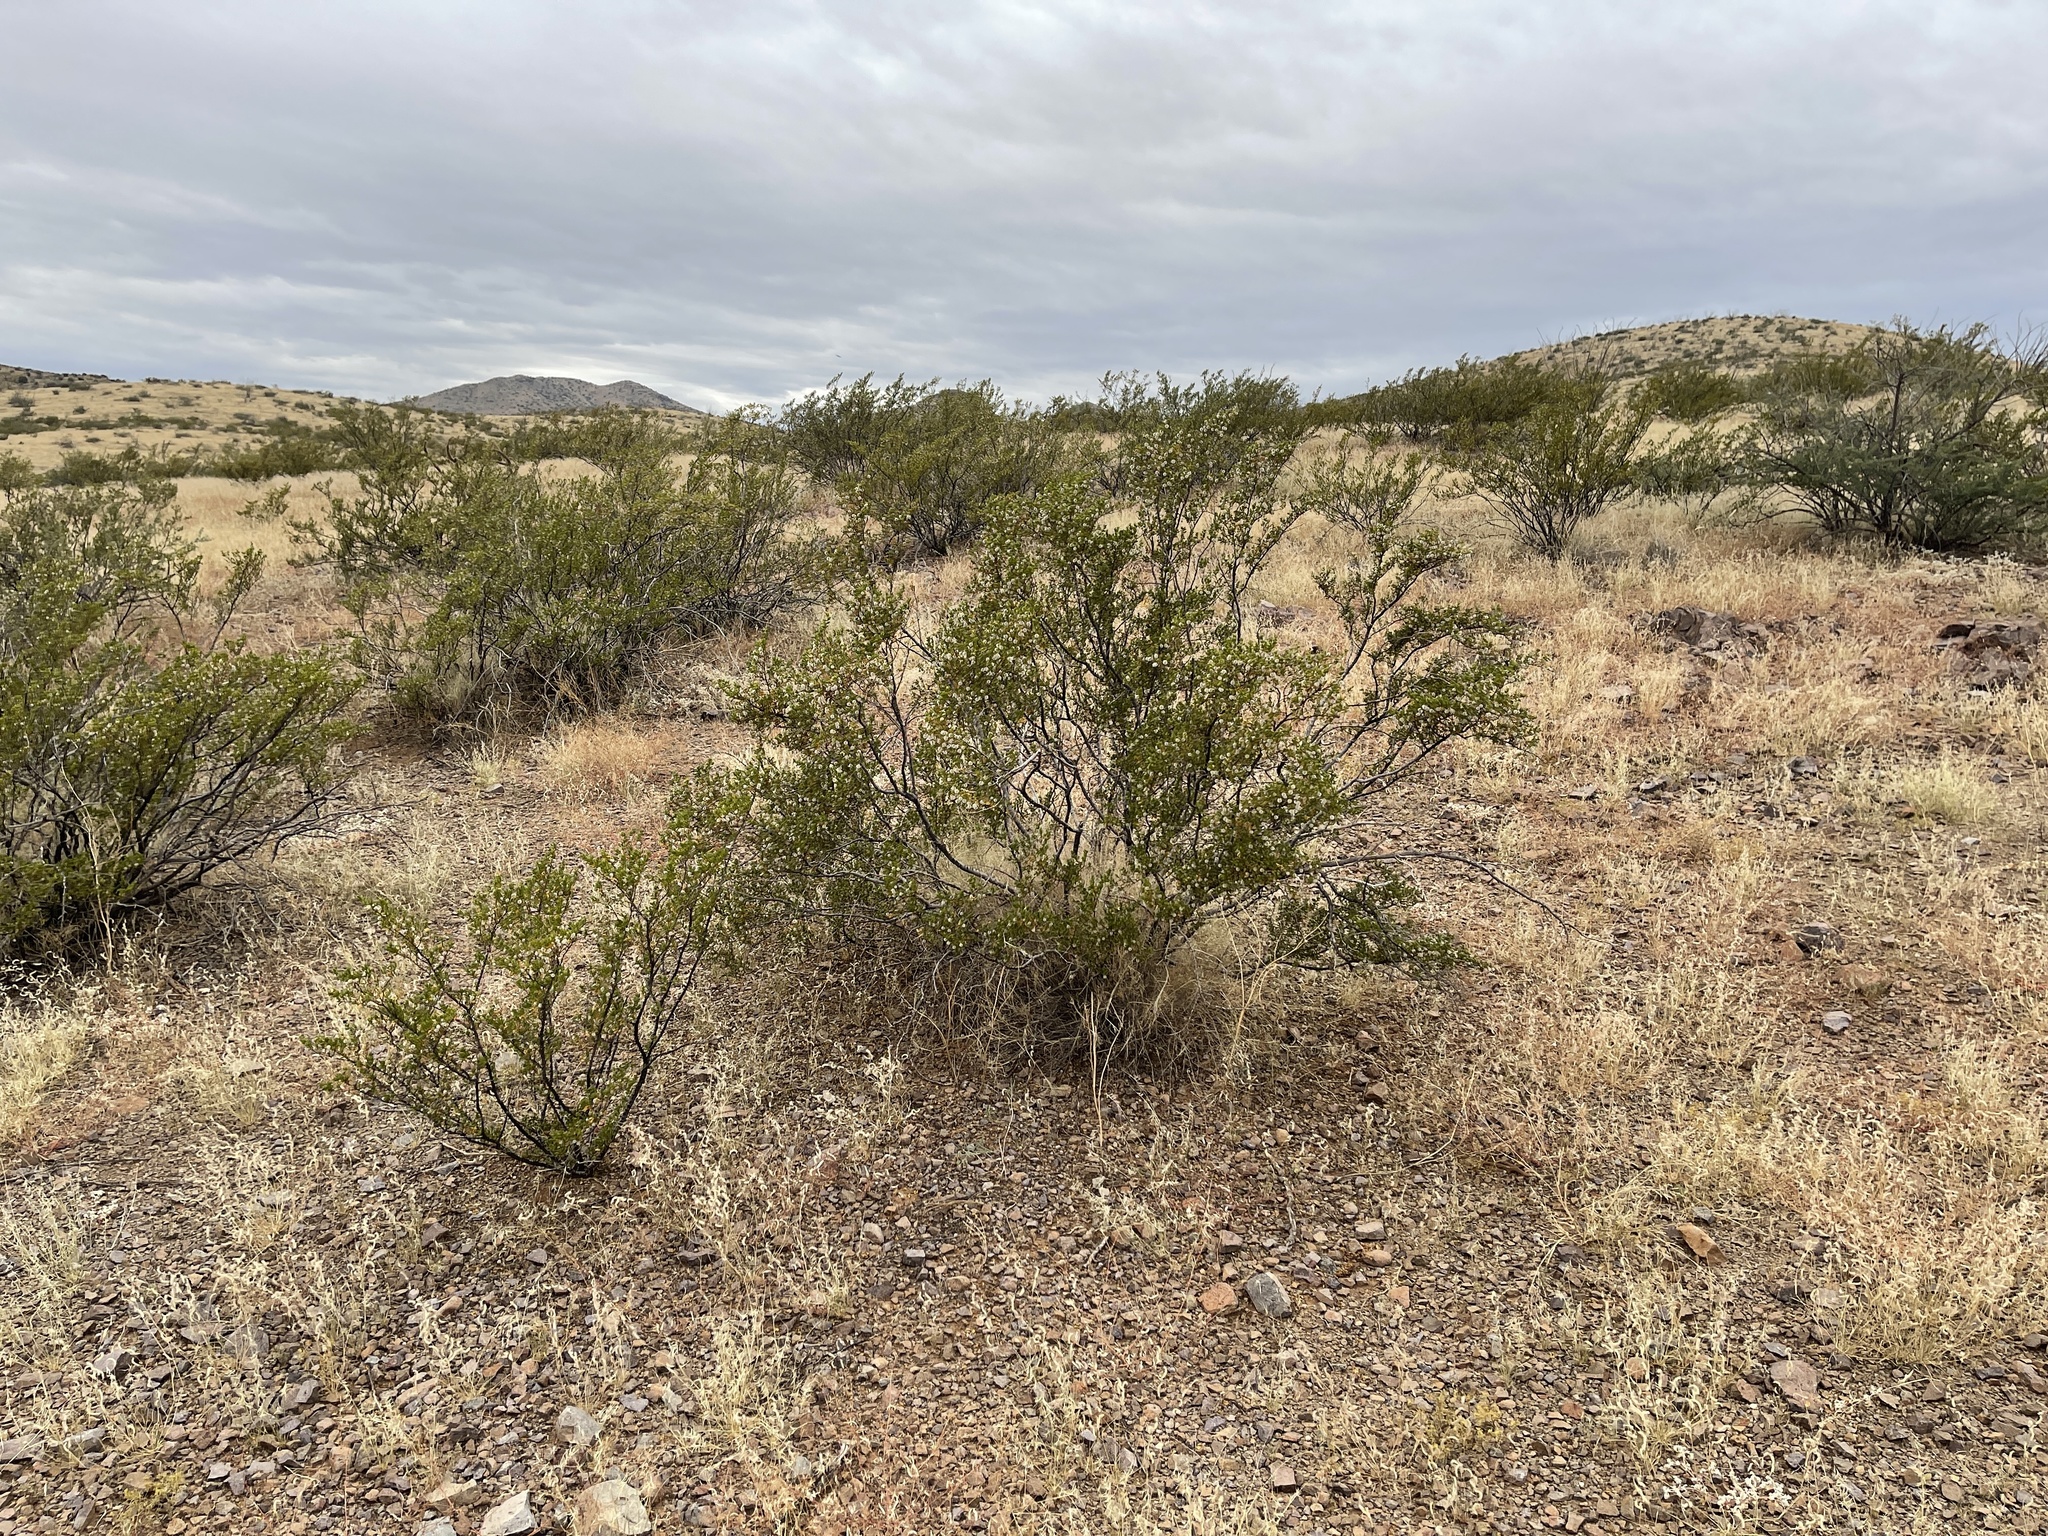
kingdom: Plantae
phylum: Tracheophyta
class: Magnoliopsida
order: Zygophyllales
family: Zygophyllaceae
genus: Larrea
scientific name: Larrea tridentata
